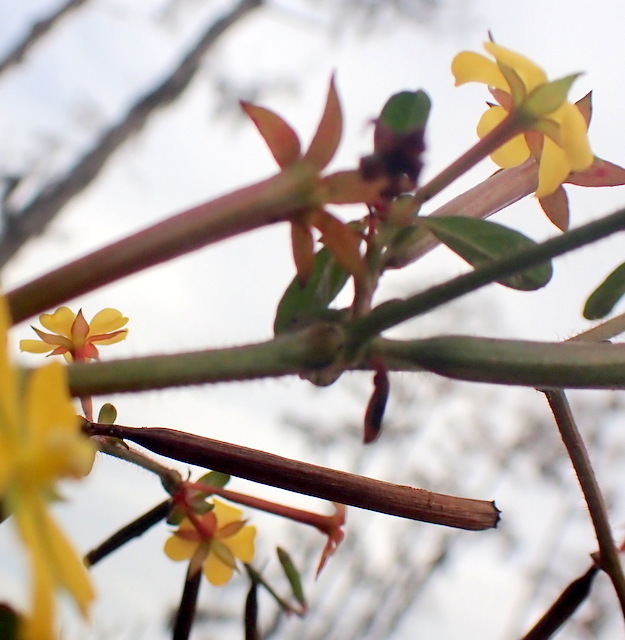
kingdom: Plantae
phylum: Tracheophyta
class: Magnoliopsida
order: Myrtales
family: Onagraceae
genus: Ludwigia
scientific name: Ludwigia leptocarpa
